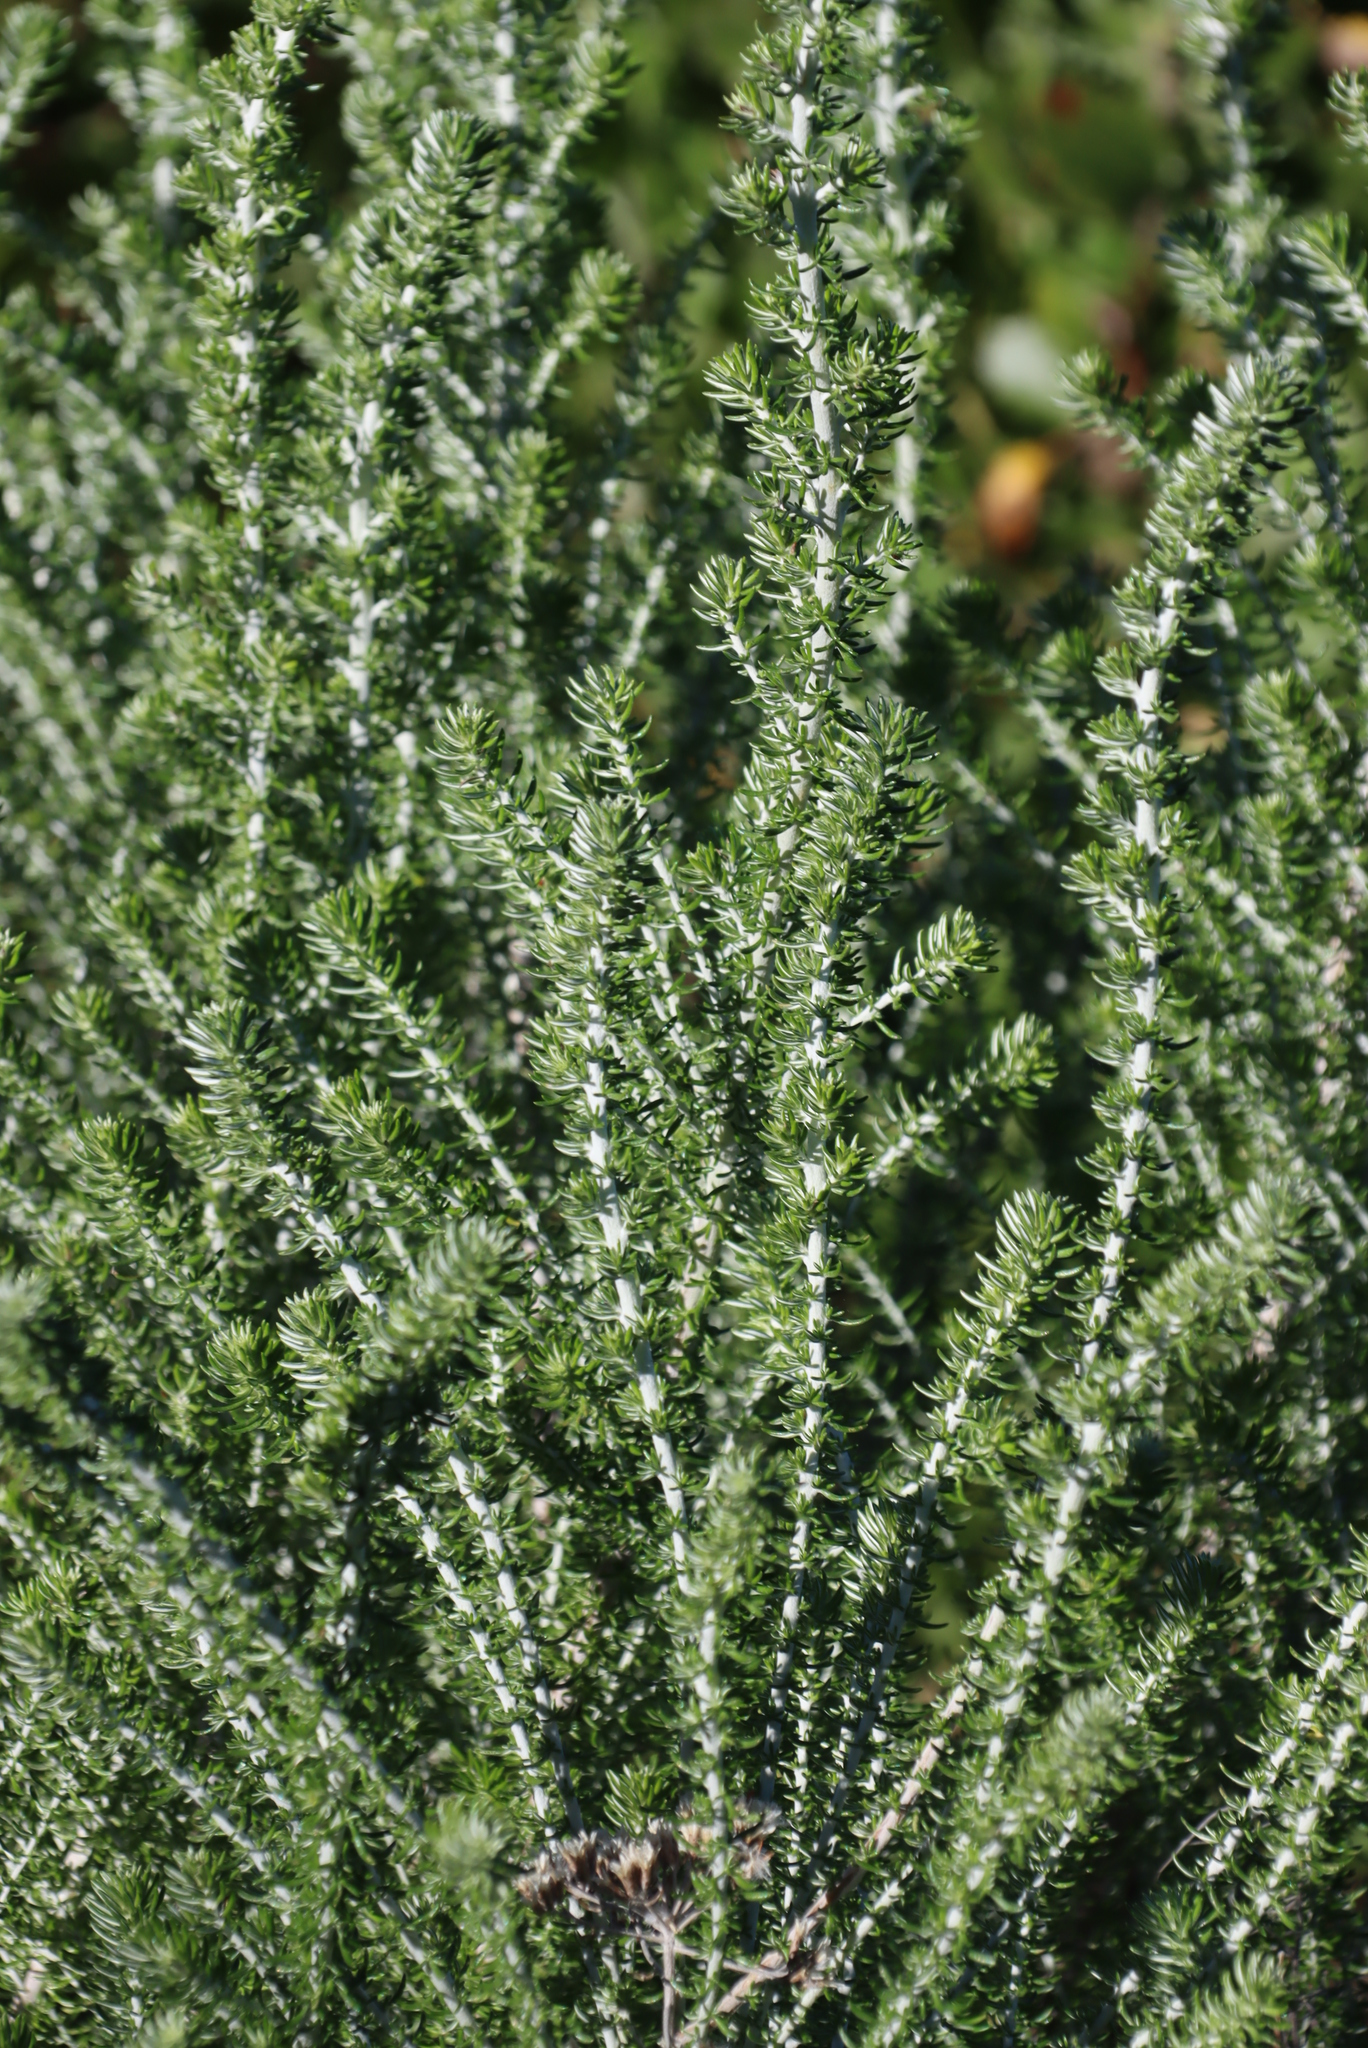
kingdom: Plantae
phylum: Tracheophyta
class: Magnoliopsida
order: Asterales
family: Asteraceae
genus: Metalasia
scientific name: Metalasia pungens
